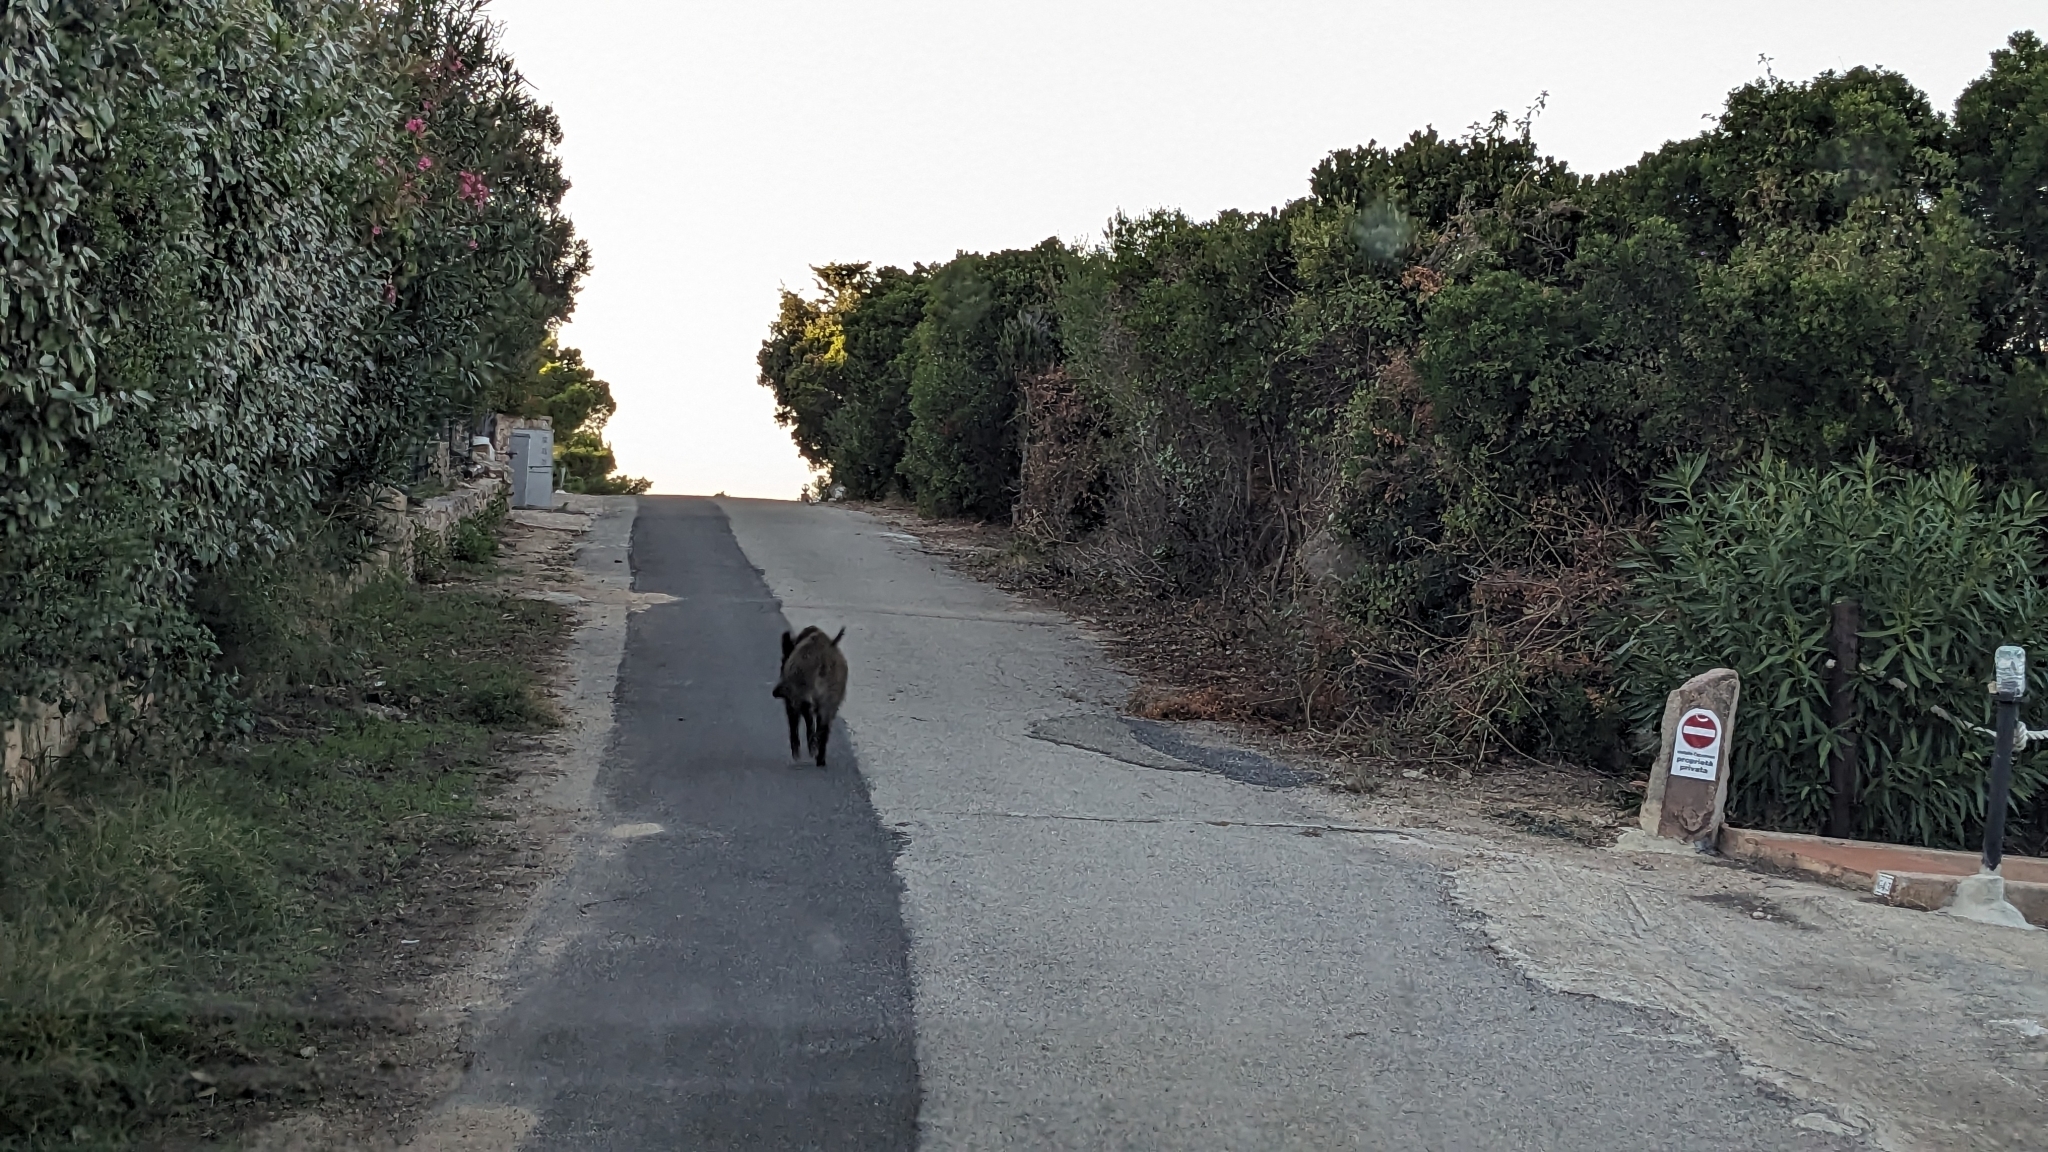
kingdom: Animalia
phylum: Chordata
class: Mammalia
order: Artiodactyla
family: Suidae
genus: Sus
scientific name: Sus scrofa
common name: Wild boar
